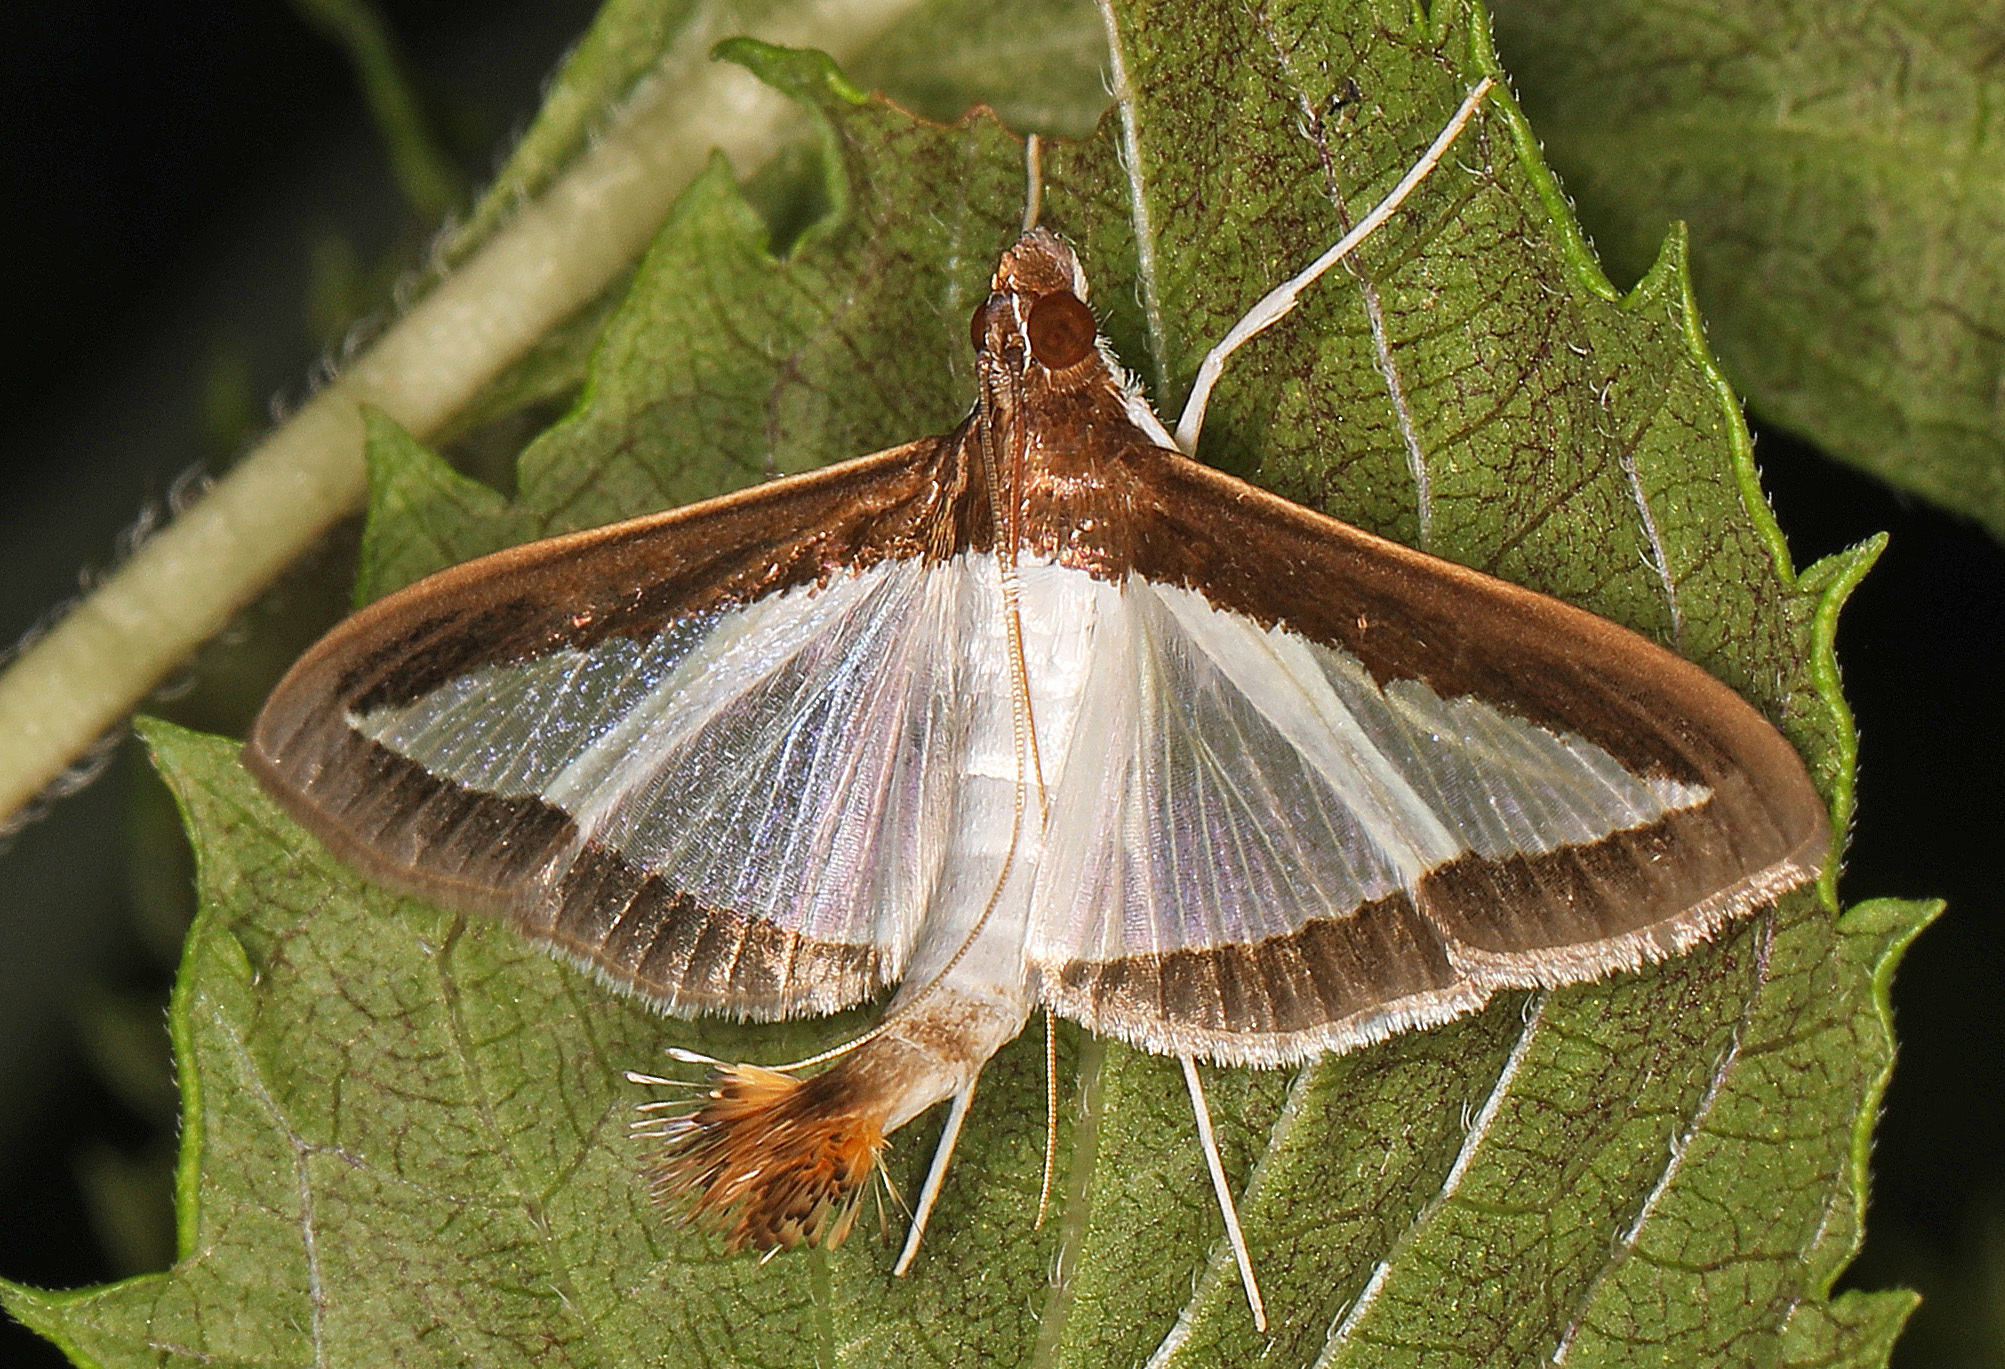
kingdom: Animalia
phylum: Arthropoda
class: Insecta
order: Lepidoptera
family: Crambidae
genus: Diaphania
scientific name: Diaphania hyalinata
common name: Melonworm
